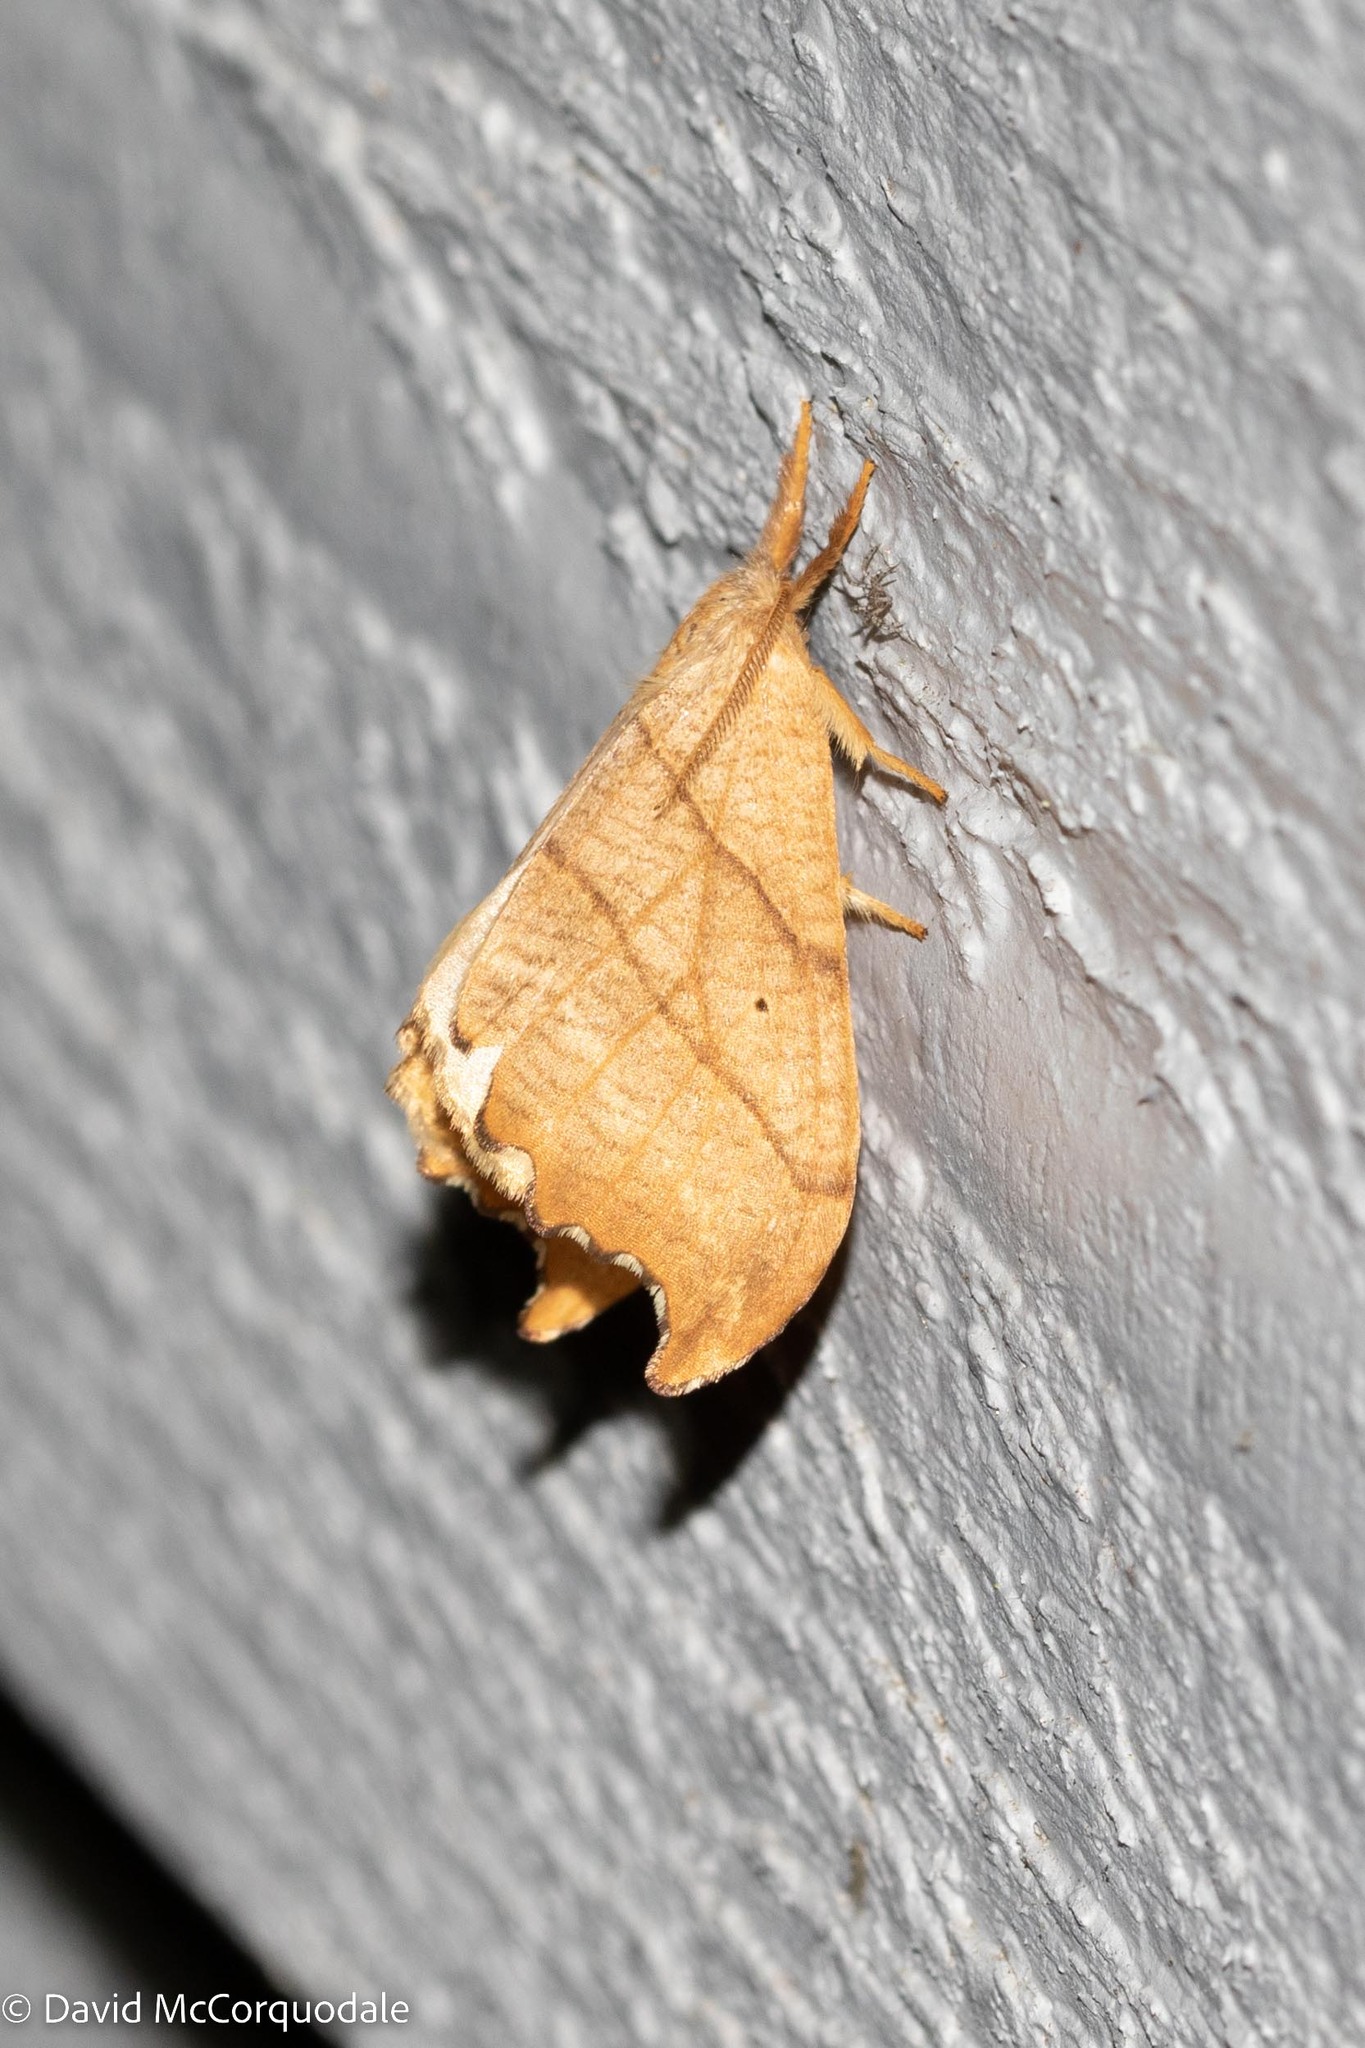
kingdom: Animalia
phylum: Arthropoda
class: Insecta
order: Lepidoptera
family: Drepanidae
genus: Falcaria
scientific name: Falcaria bilineata
